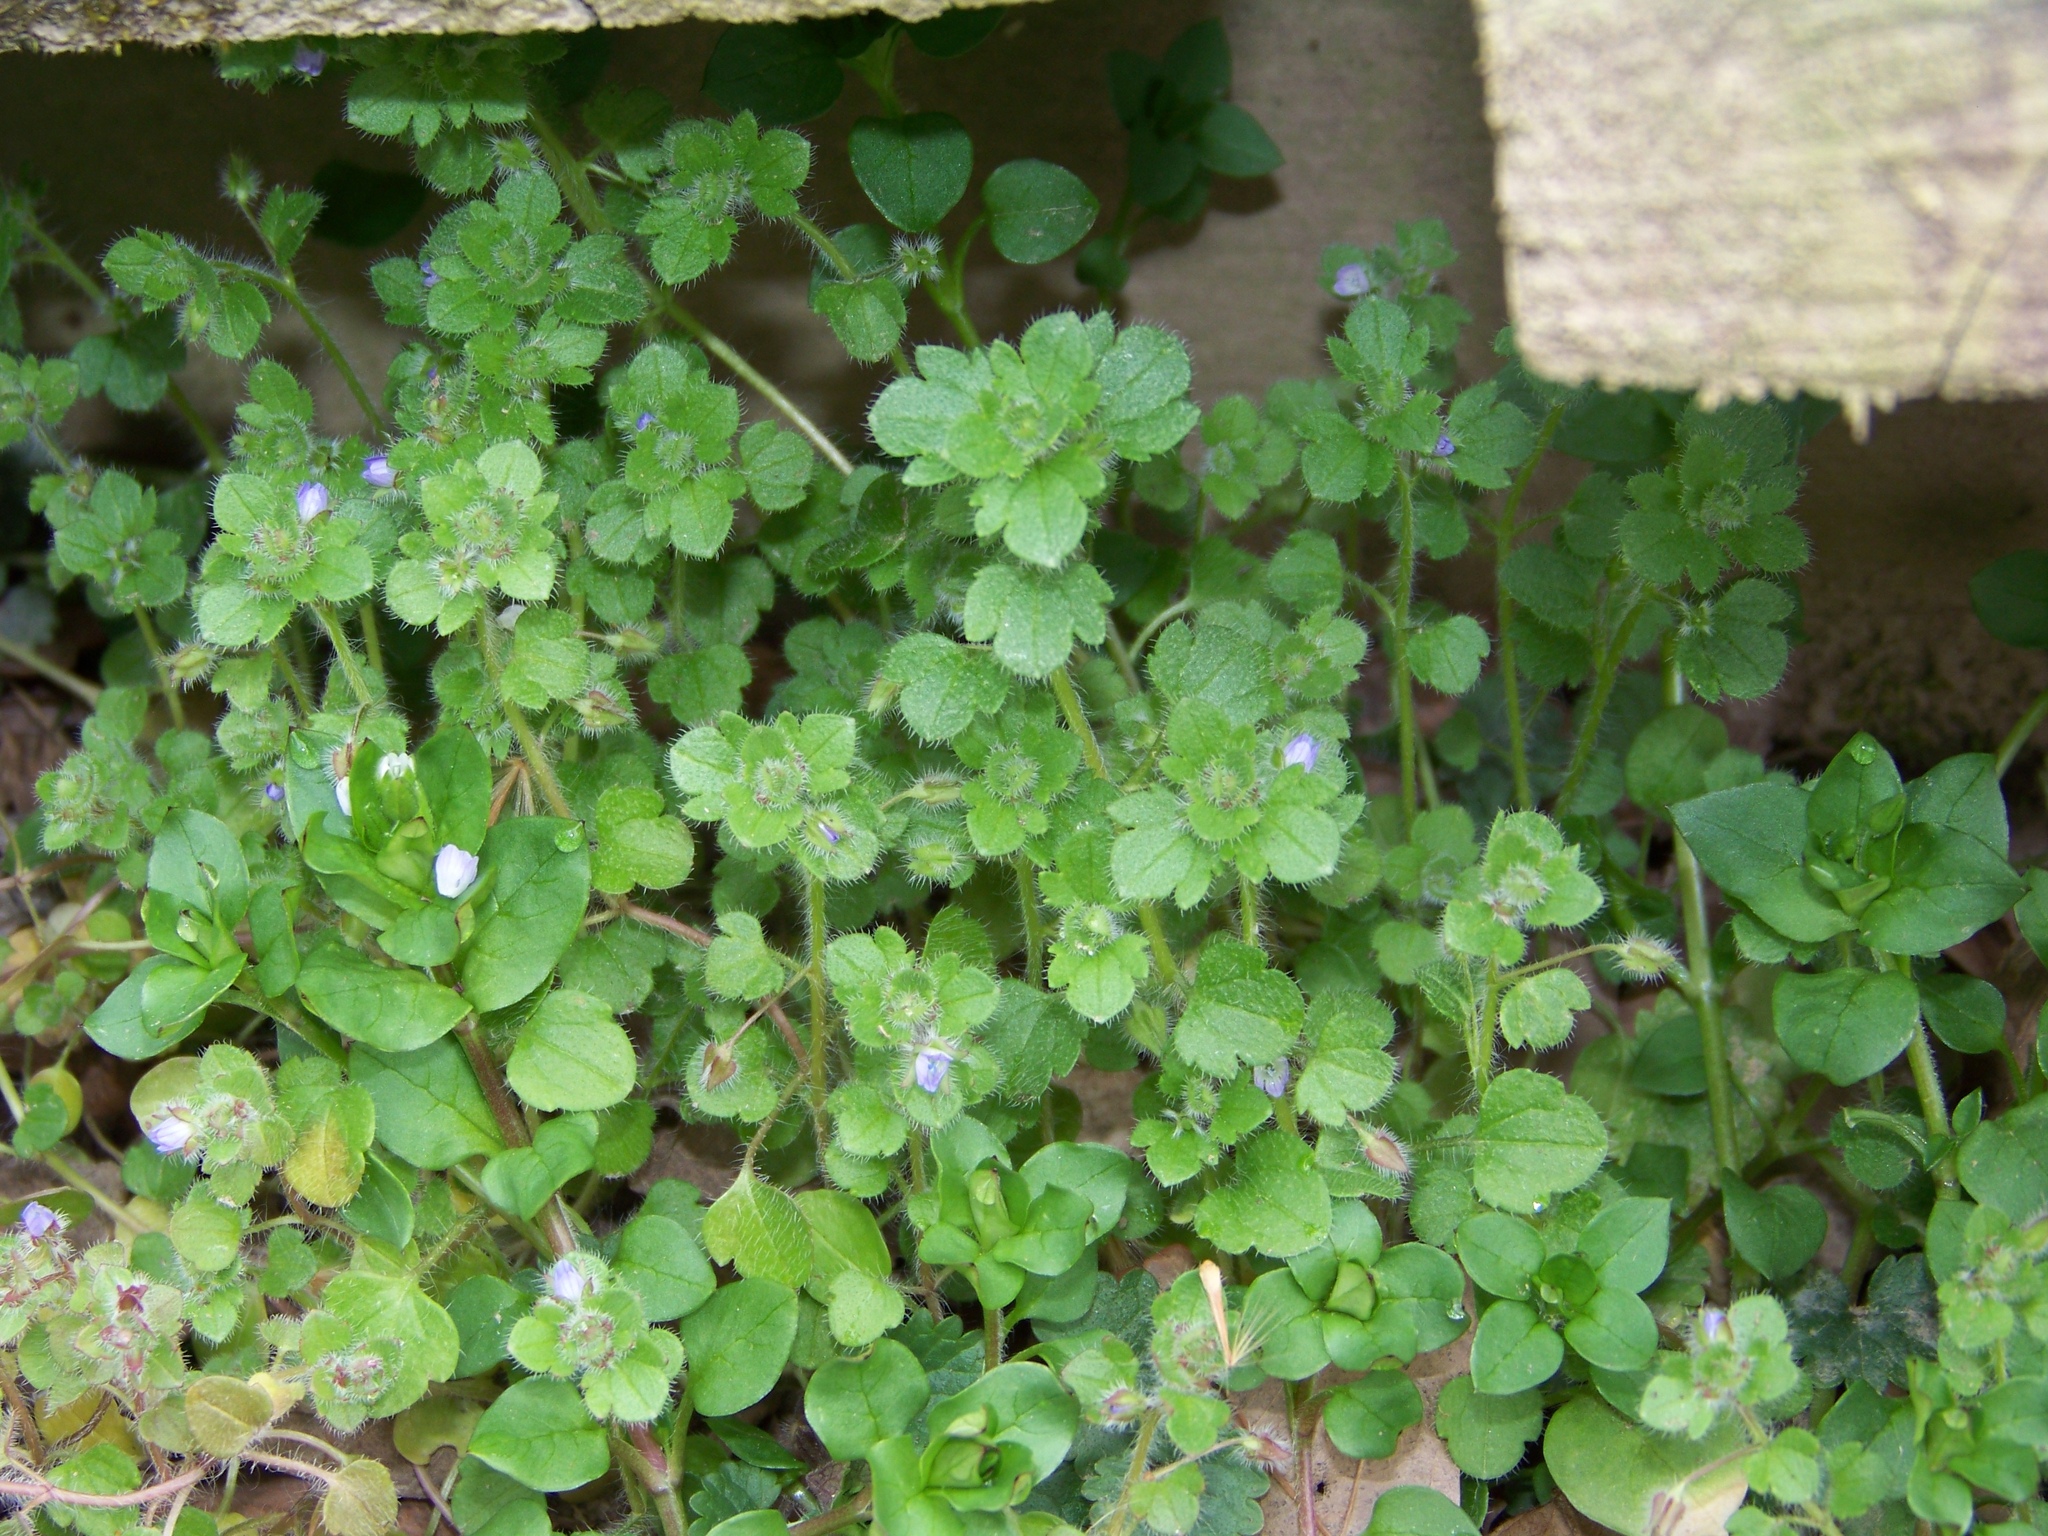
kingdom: Plantae
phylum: Tracheophyta
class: Magnoliopsida
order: Lamiales
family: Plantaginaceae
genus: Veronica
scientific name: Veronica hederifolia
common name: Ivy-leaved speedwell
